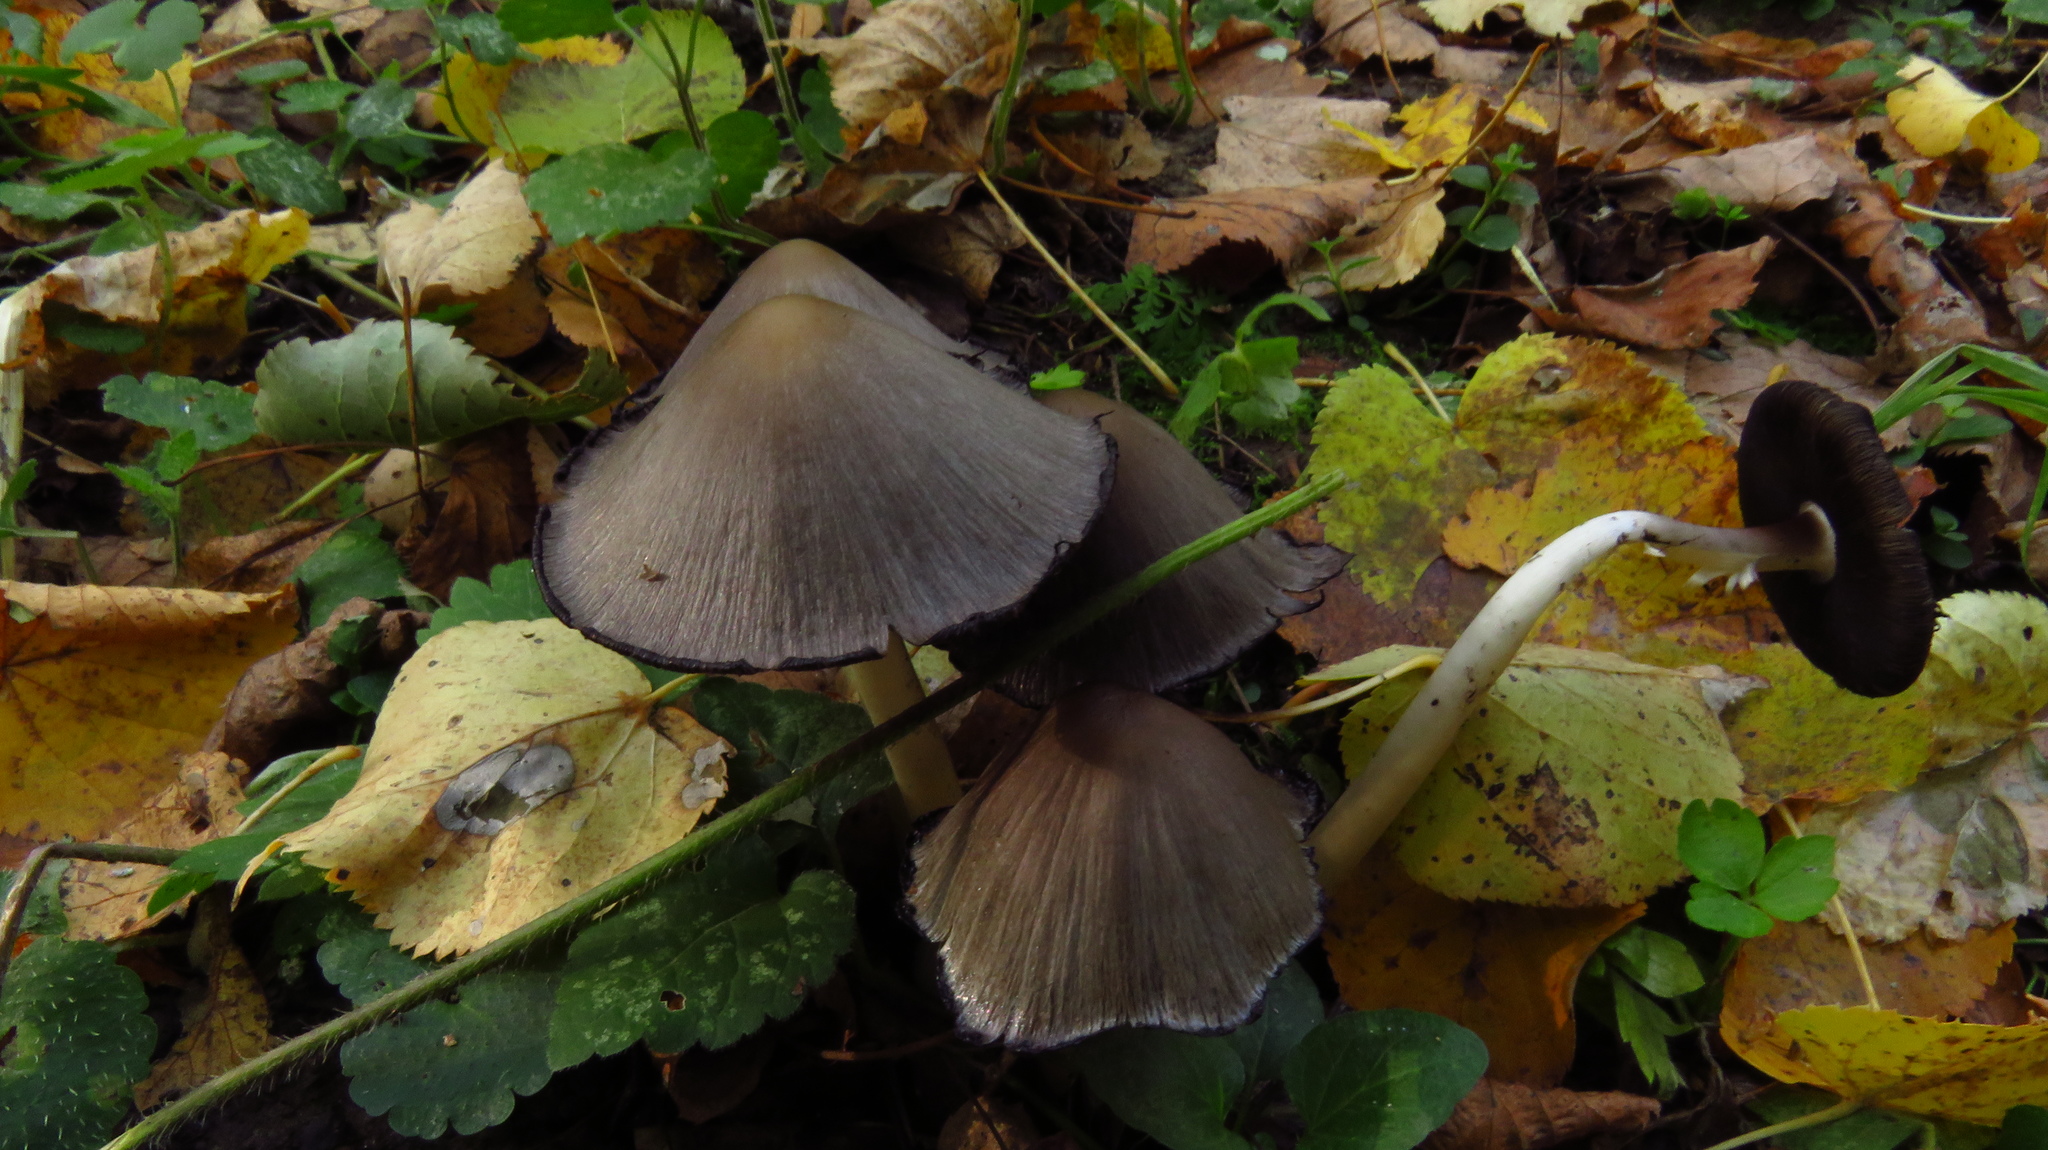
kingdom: Fungi
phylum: Basidiomycota
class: Agaricomycetes
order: Agaricales
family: Psathyrellaceae
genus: Coprinopsis
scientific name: Coprinopsis atramentaria
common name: Common ink-cap
